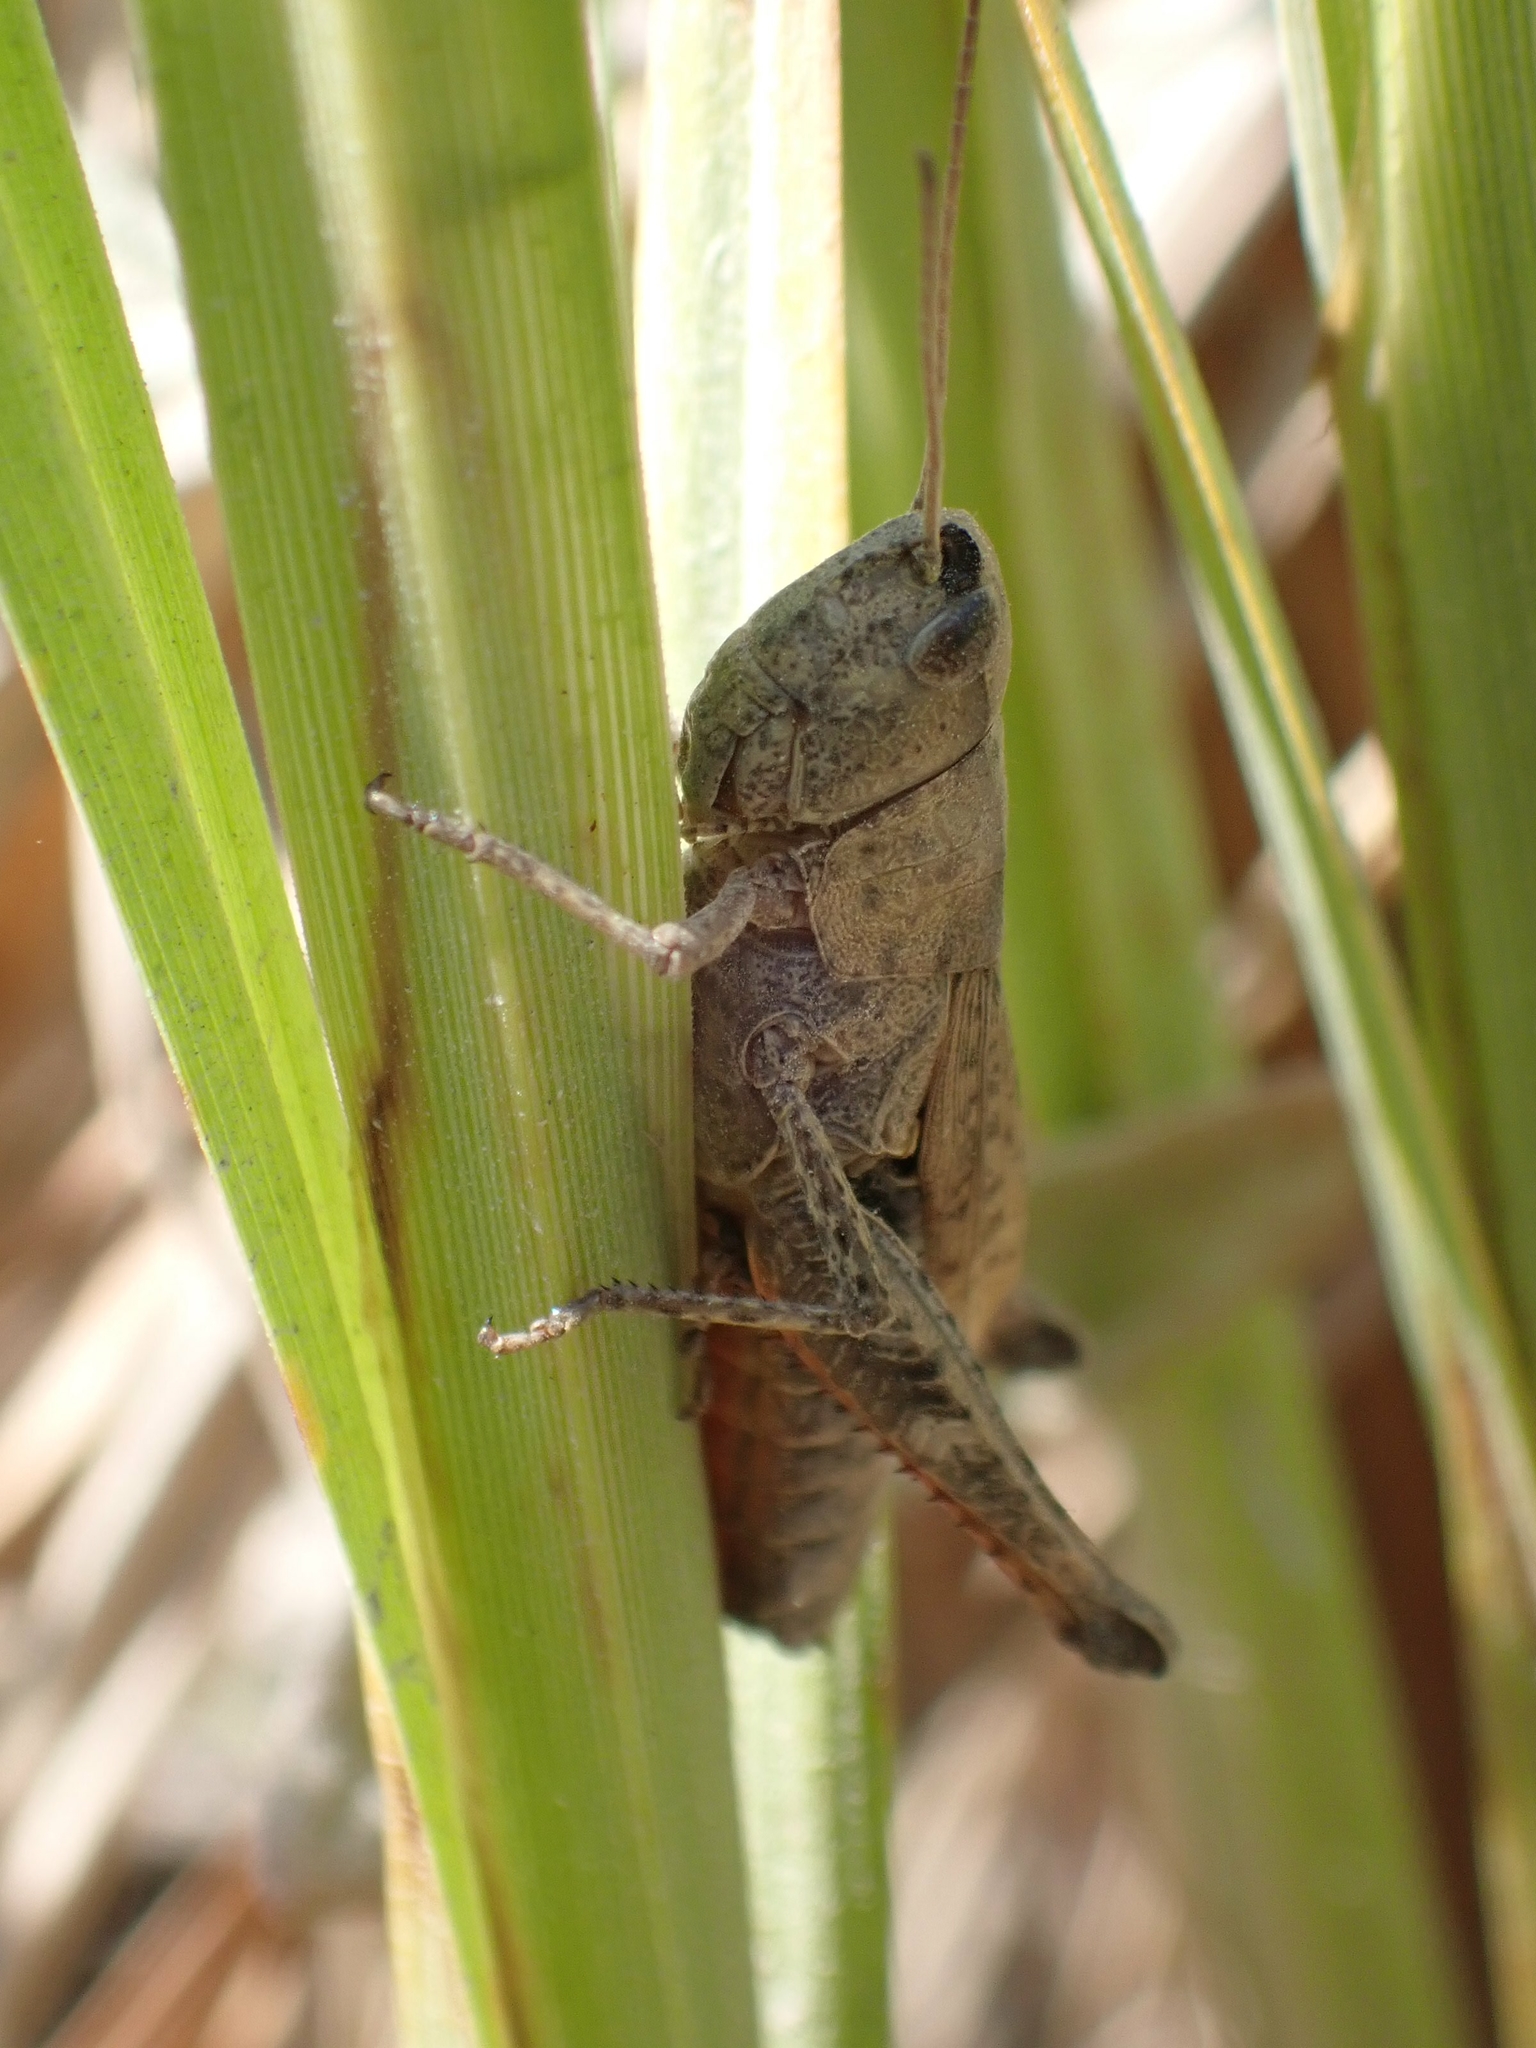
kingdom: Animalia
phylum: Arthropoda
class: Insecta
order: Orthoptera
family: Acrididae
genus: Chloealtis
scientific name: Chloealtis conspersa
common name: Sprinkled broad-winged grasshopper
